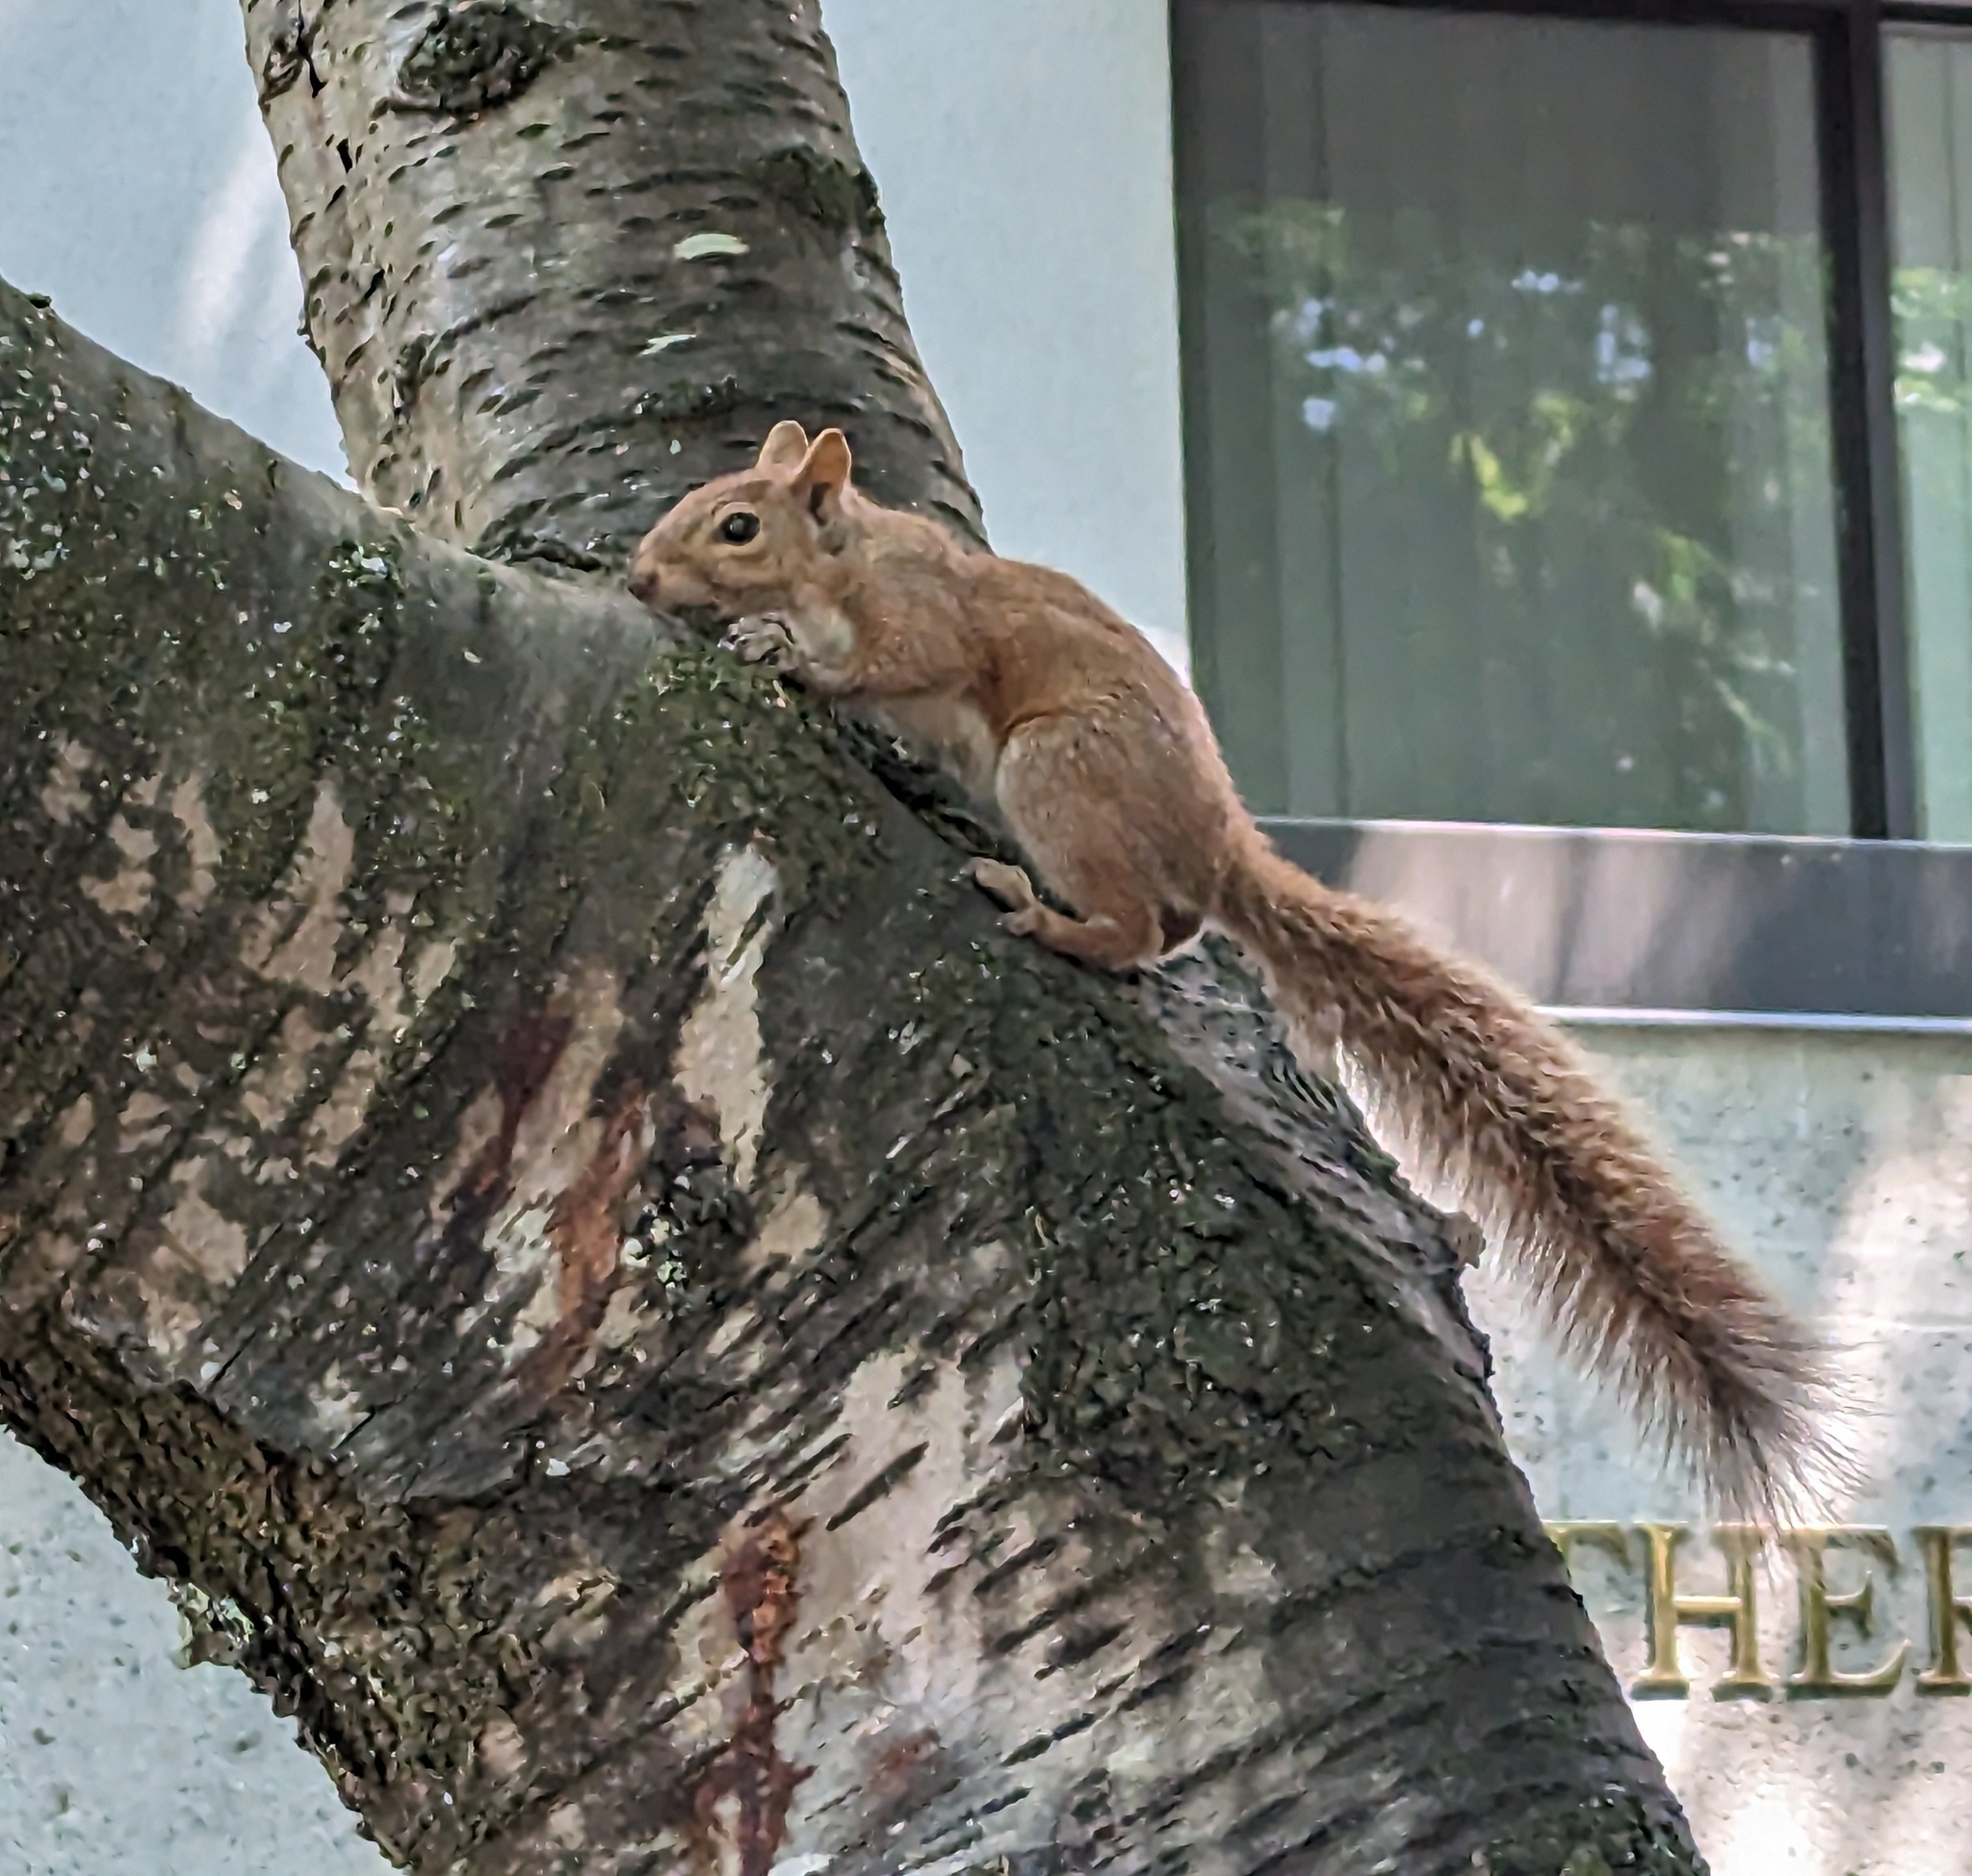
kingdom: Animalia
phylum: Chordata
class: Mammalia
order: Rodentia
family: Sciuridae
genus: Sciurus
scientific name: Sciurus carolinensis
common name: Eastern gray squirrel
